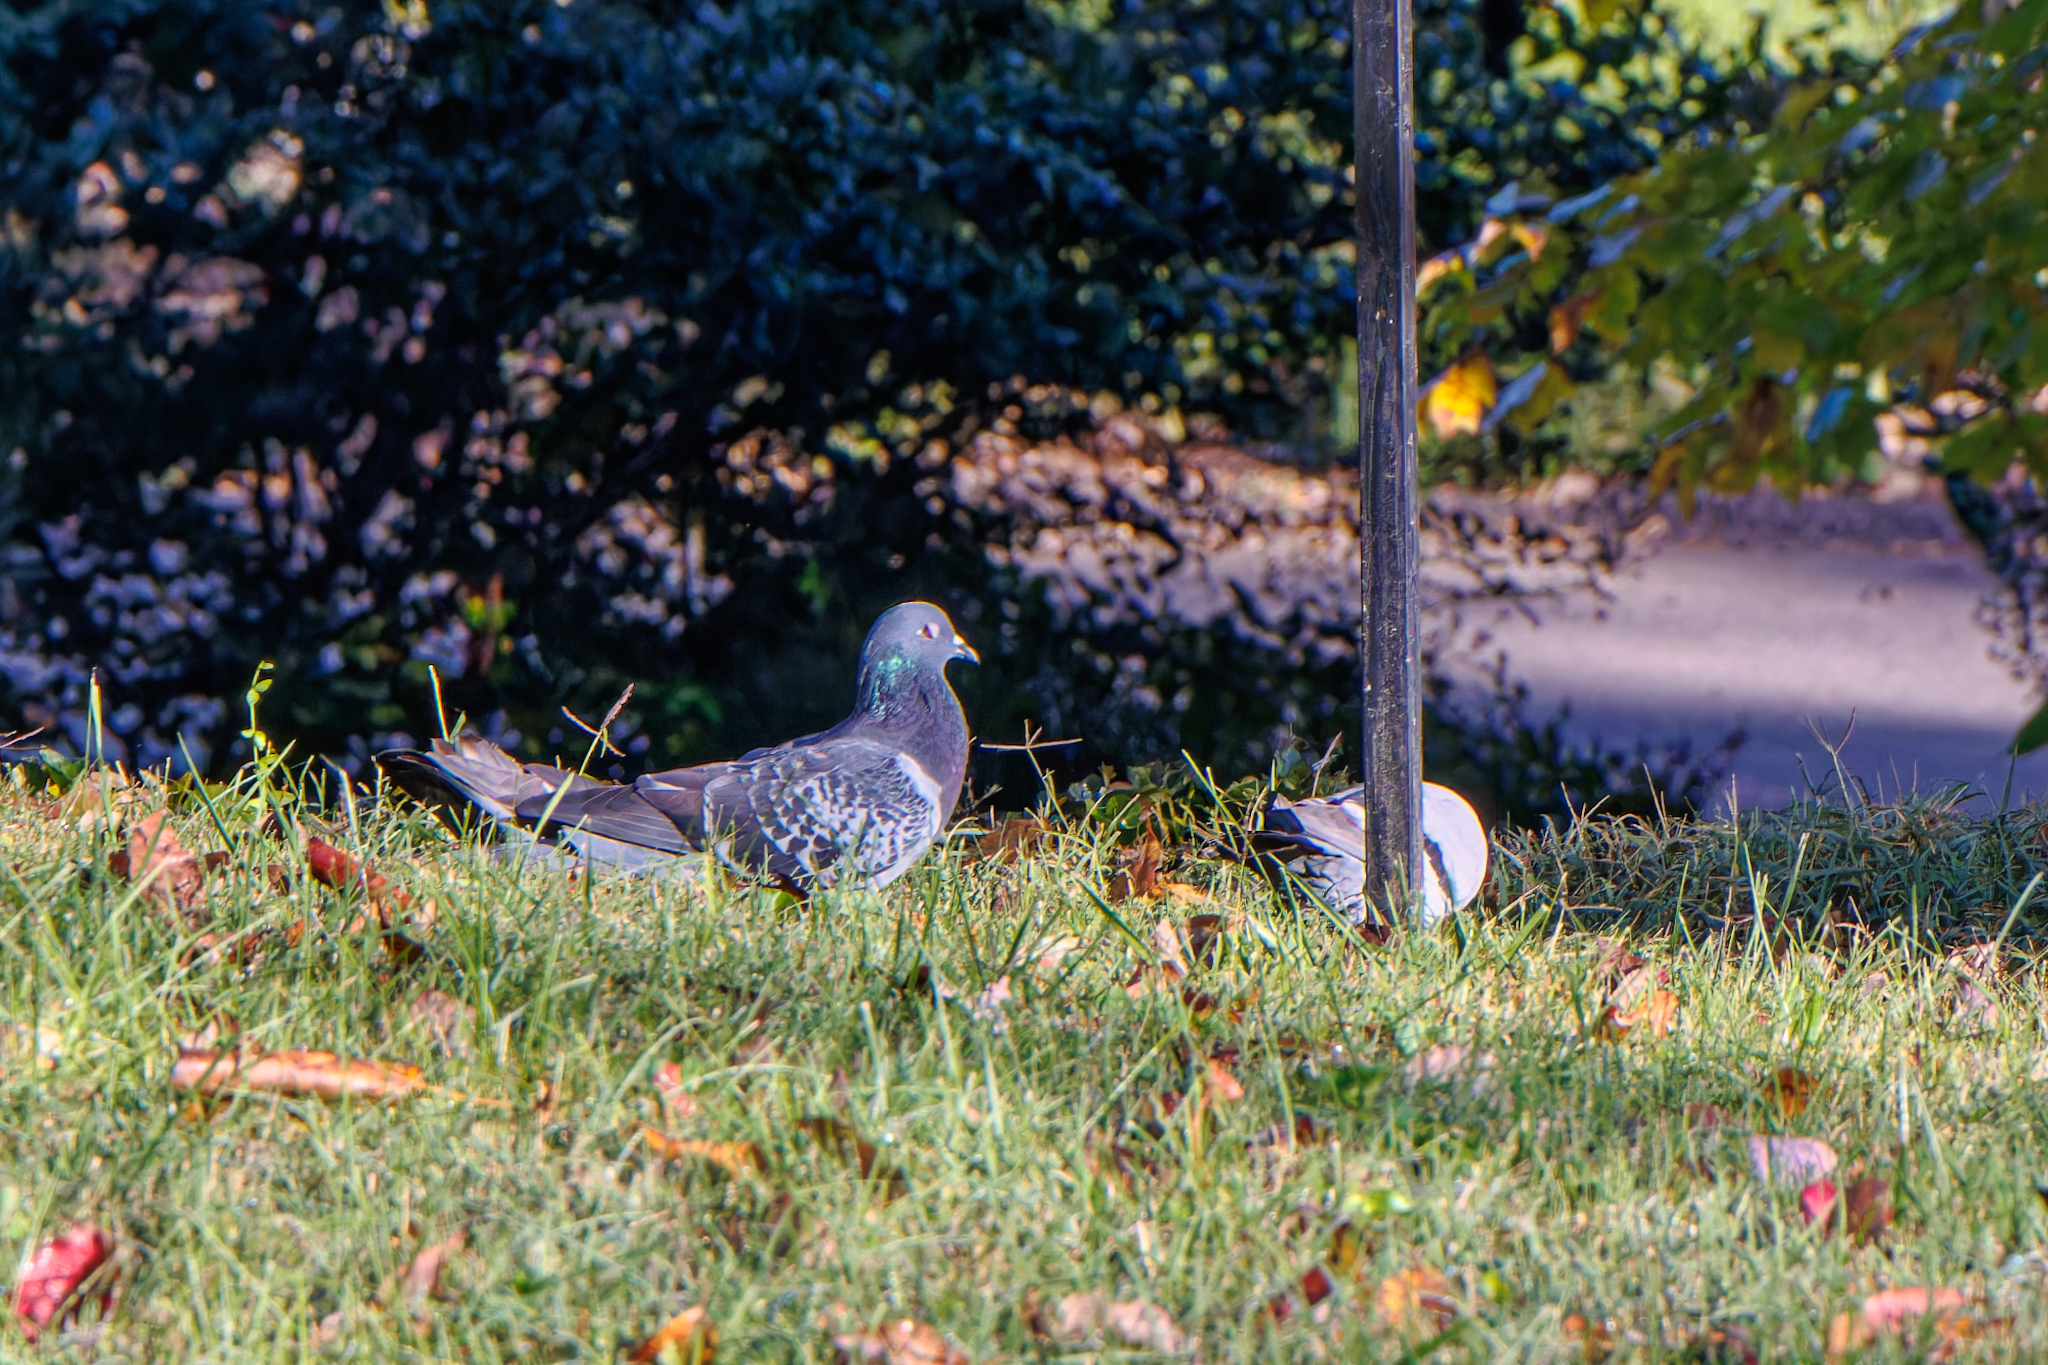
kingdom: Animalia
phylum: Chordata
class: Aves
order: Columbiformes
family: Columbidae
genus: Columba
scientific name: Columba livia
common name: Rock pigeon
